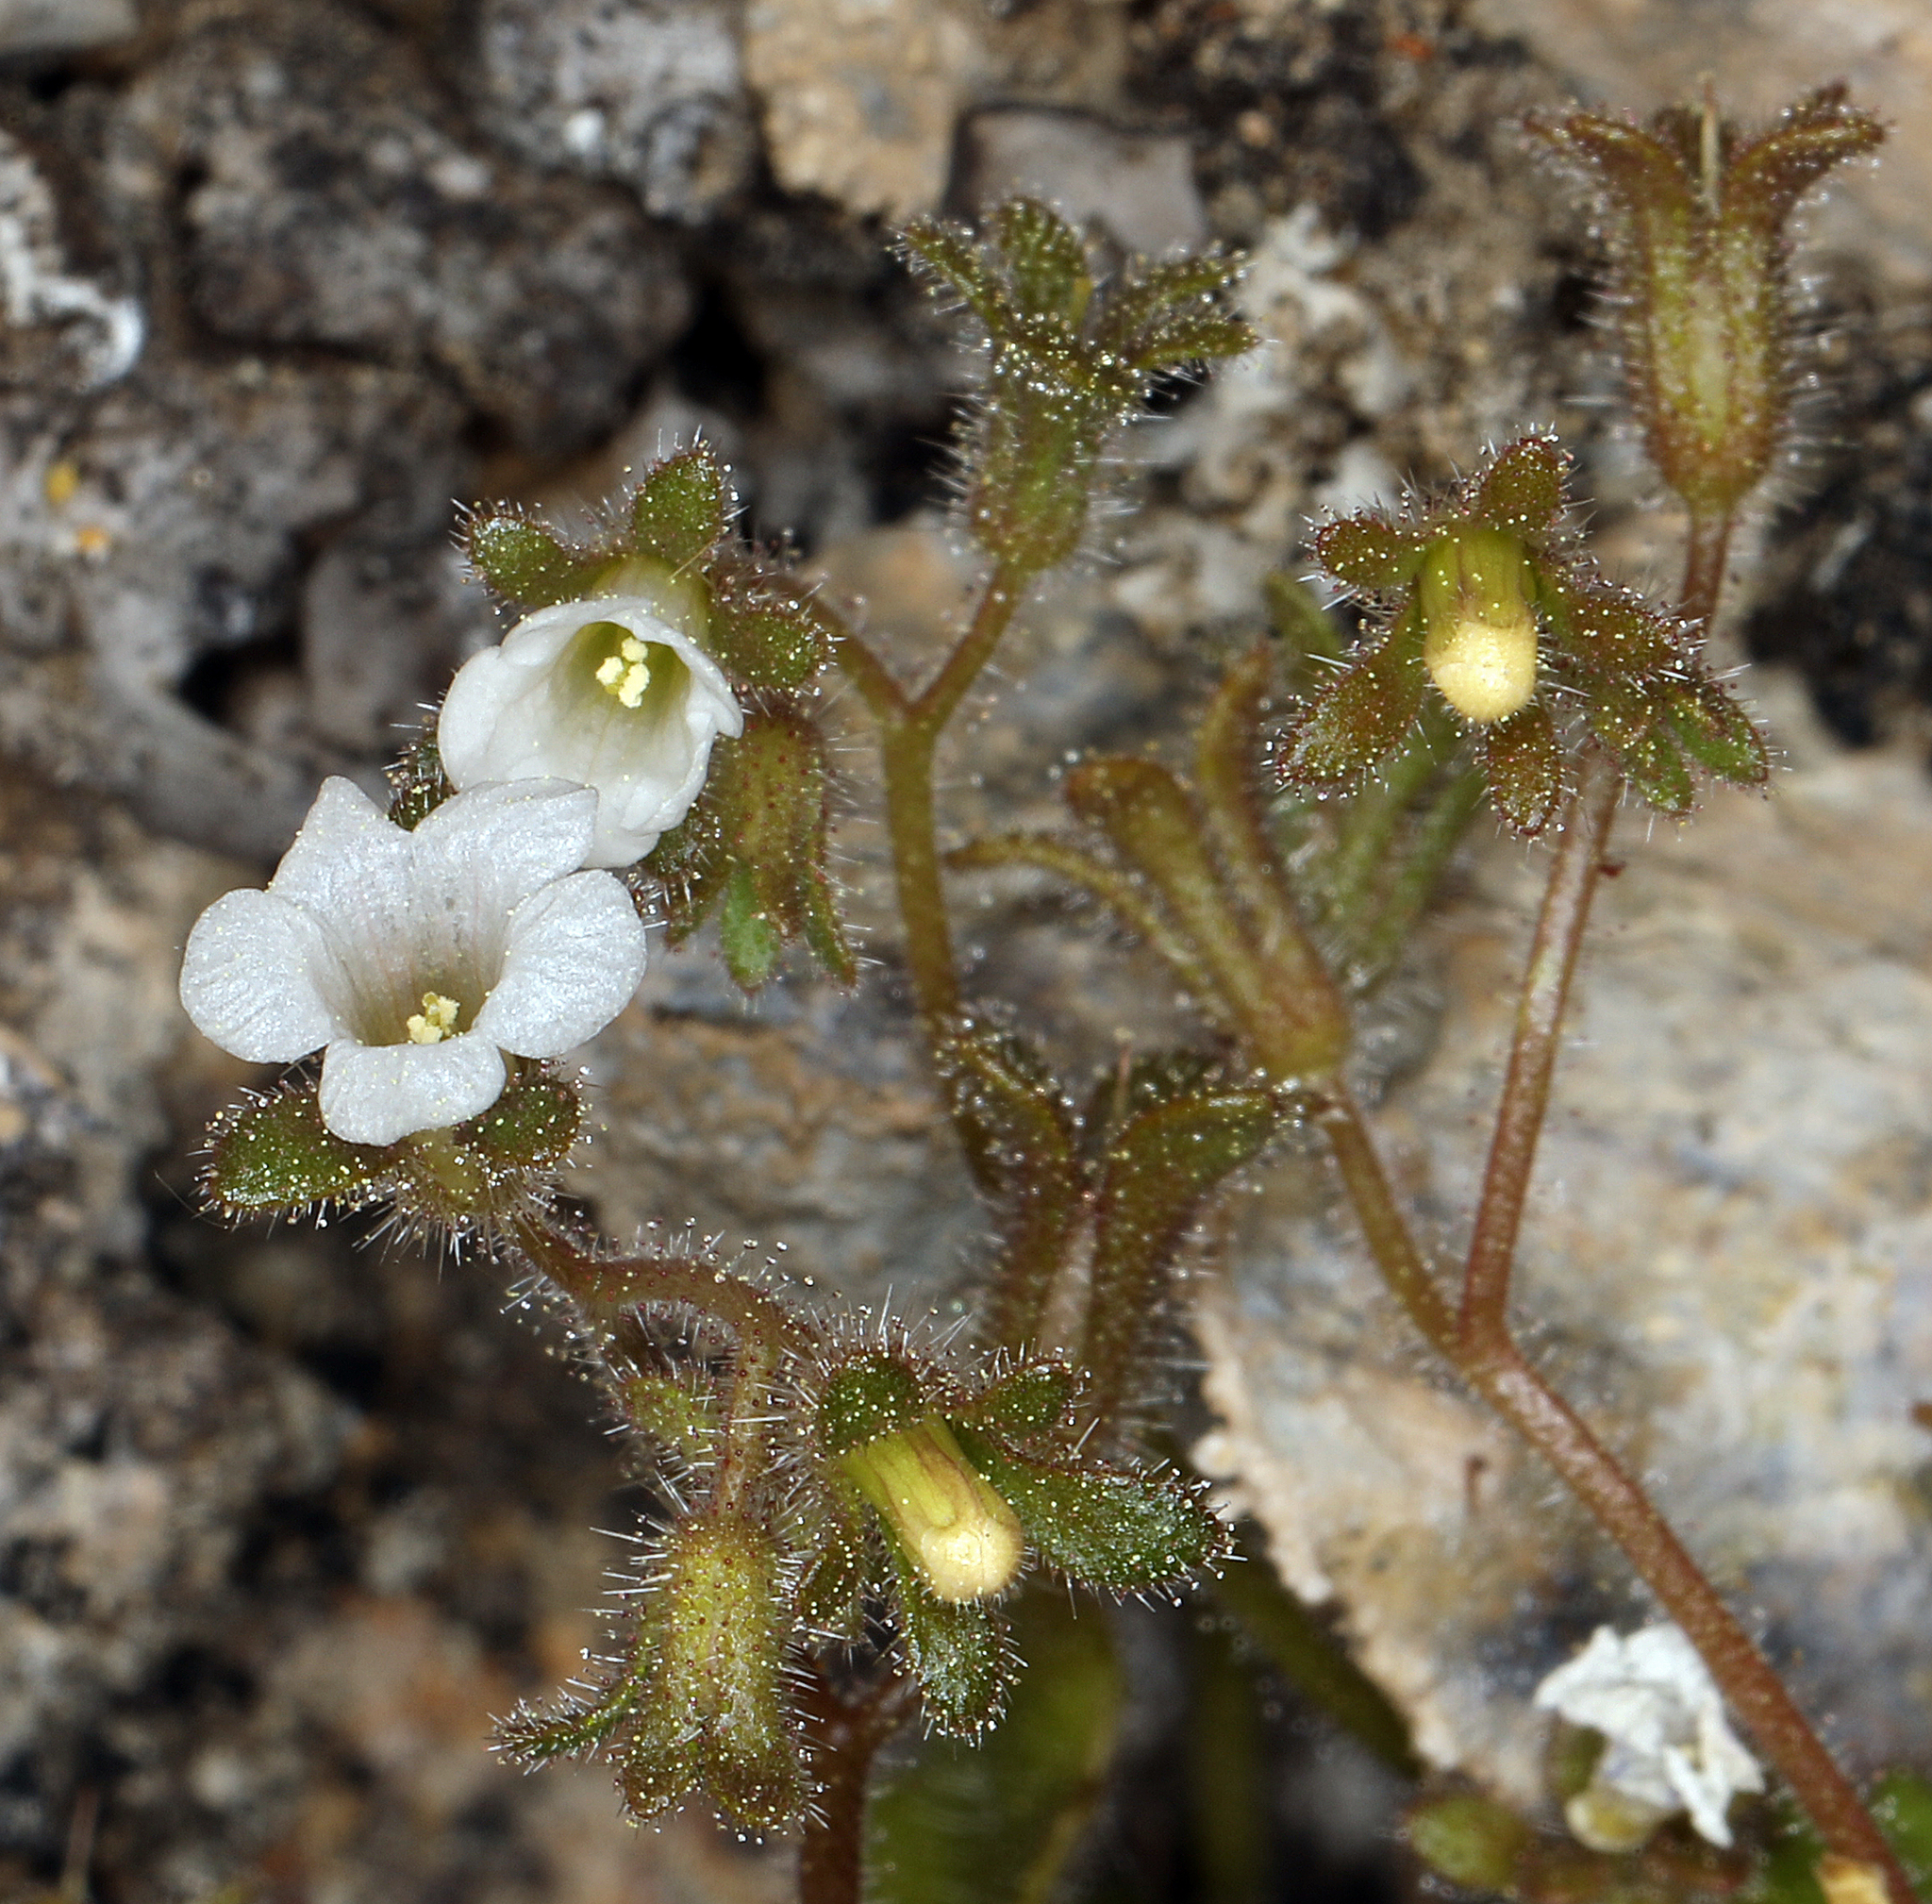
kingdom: Plantae
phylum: Tracheophyta
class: Magnoliopsida
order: Boraginales
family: Hydrophyllaceae
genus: Phacelia
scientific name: Phacelia rotundifolia
